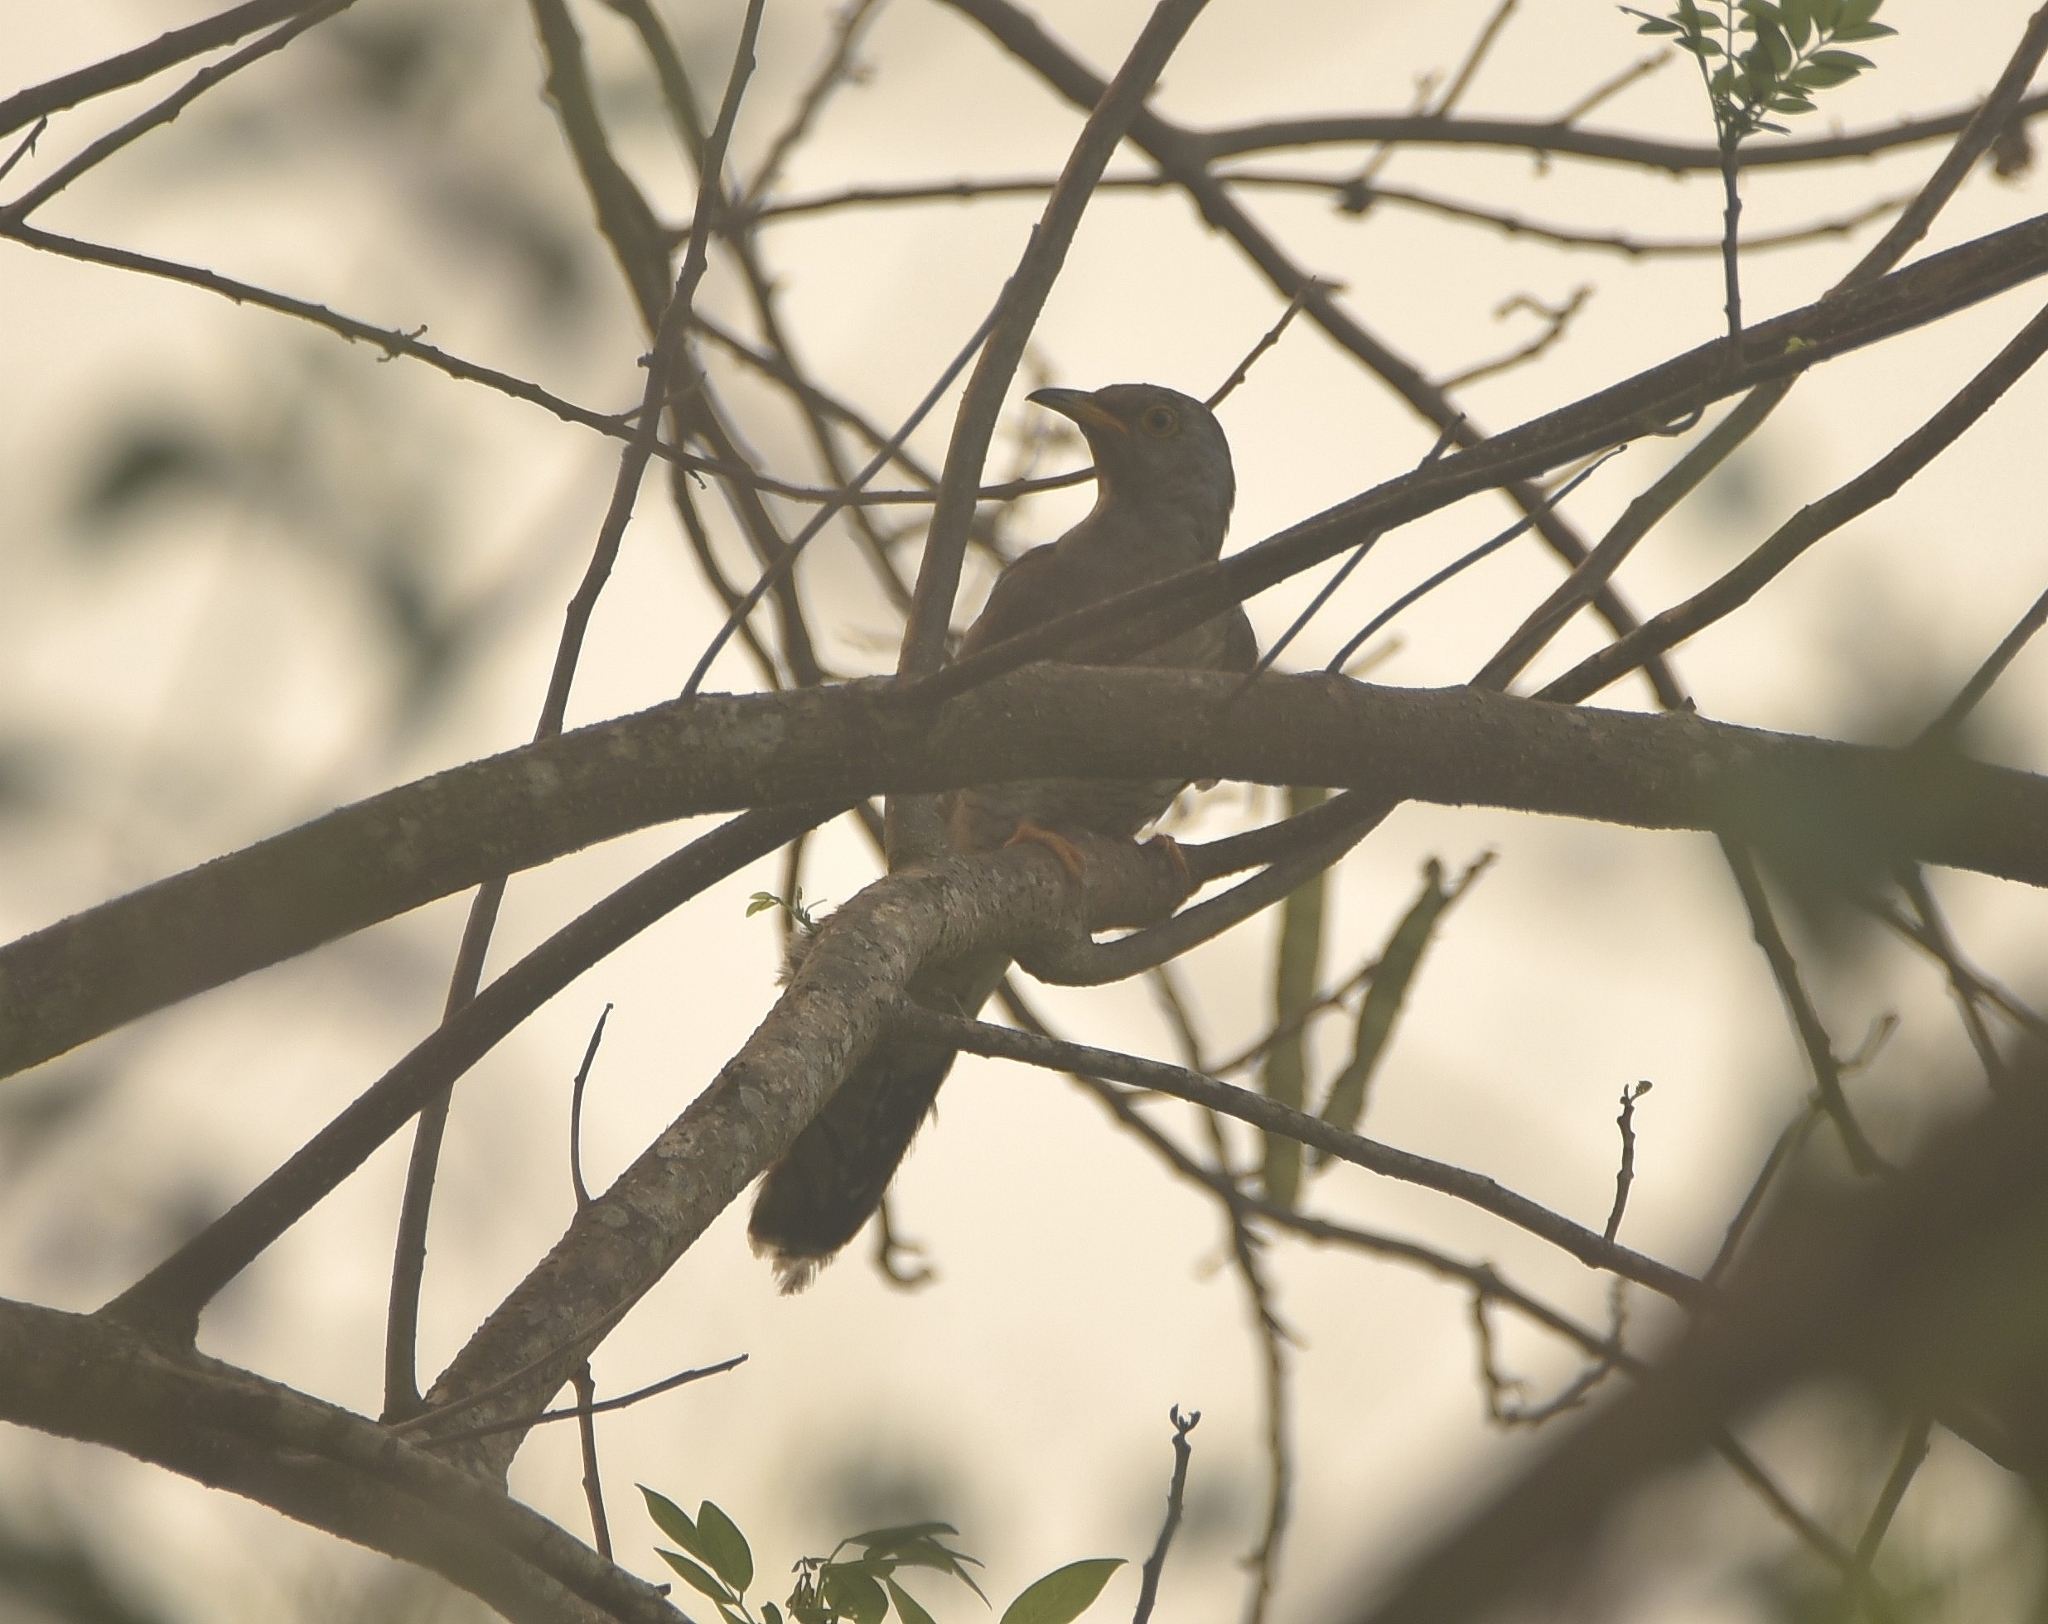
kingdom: Animalia
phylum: Chordata
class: Aves
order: Cuculiformes
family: Cuculidae
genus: Cuculus
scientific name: Cuculus canorus
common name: Common cuckoo
